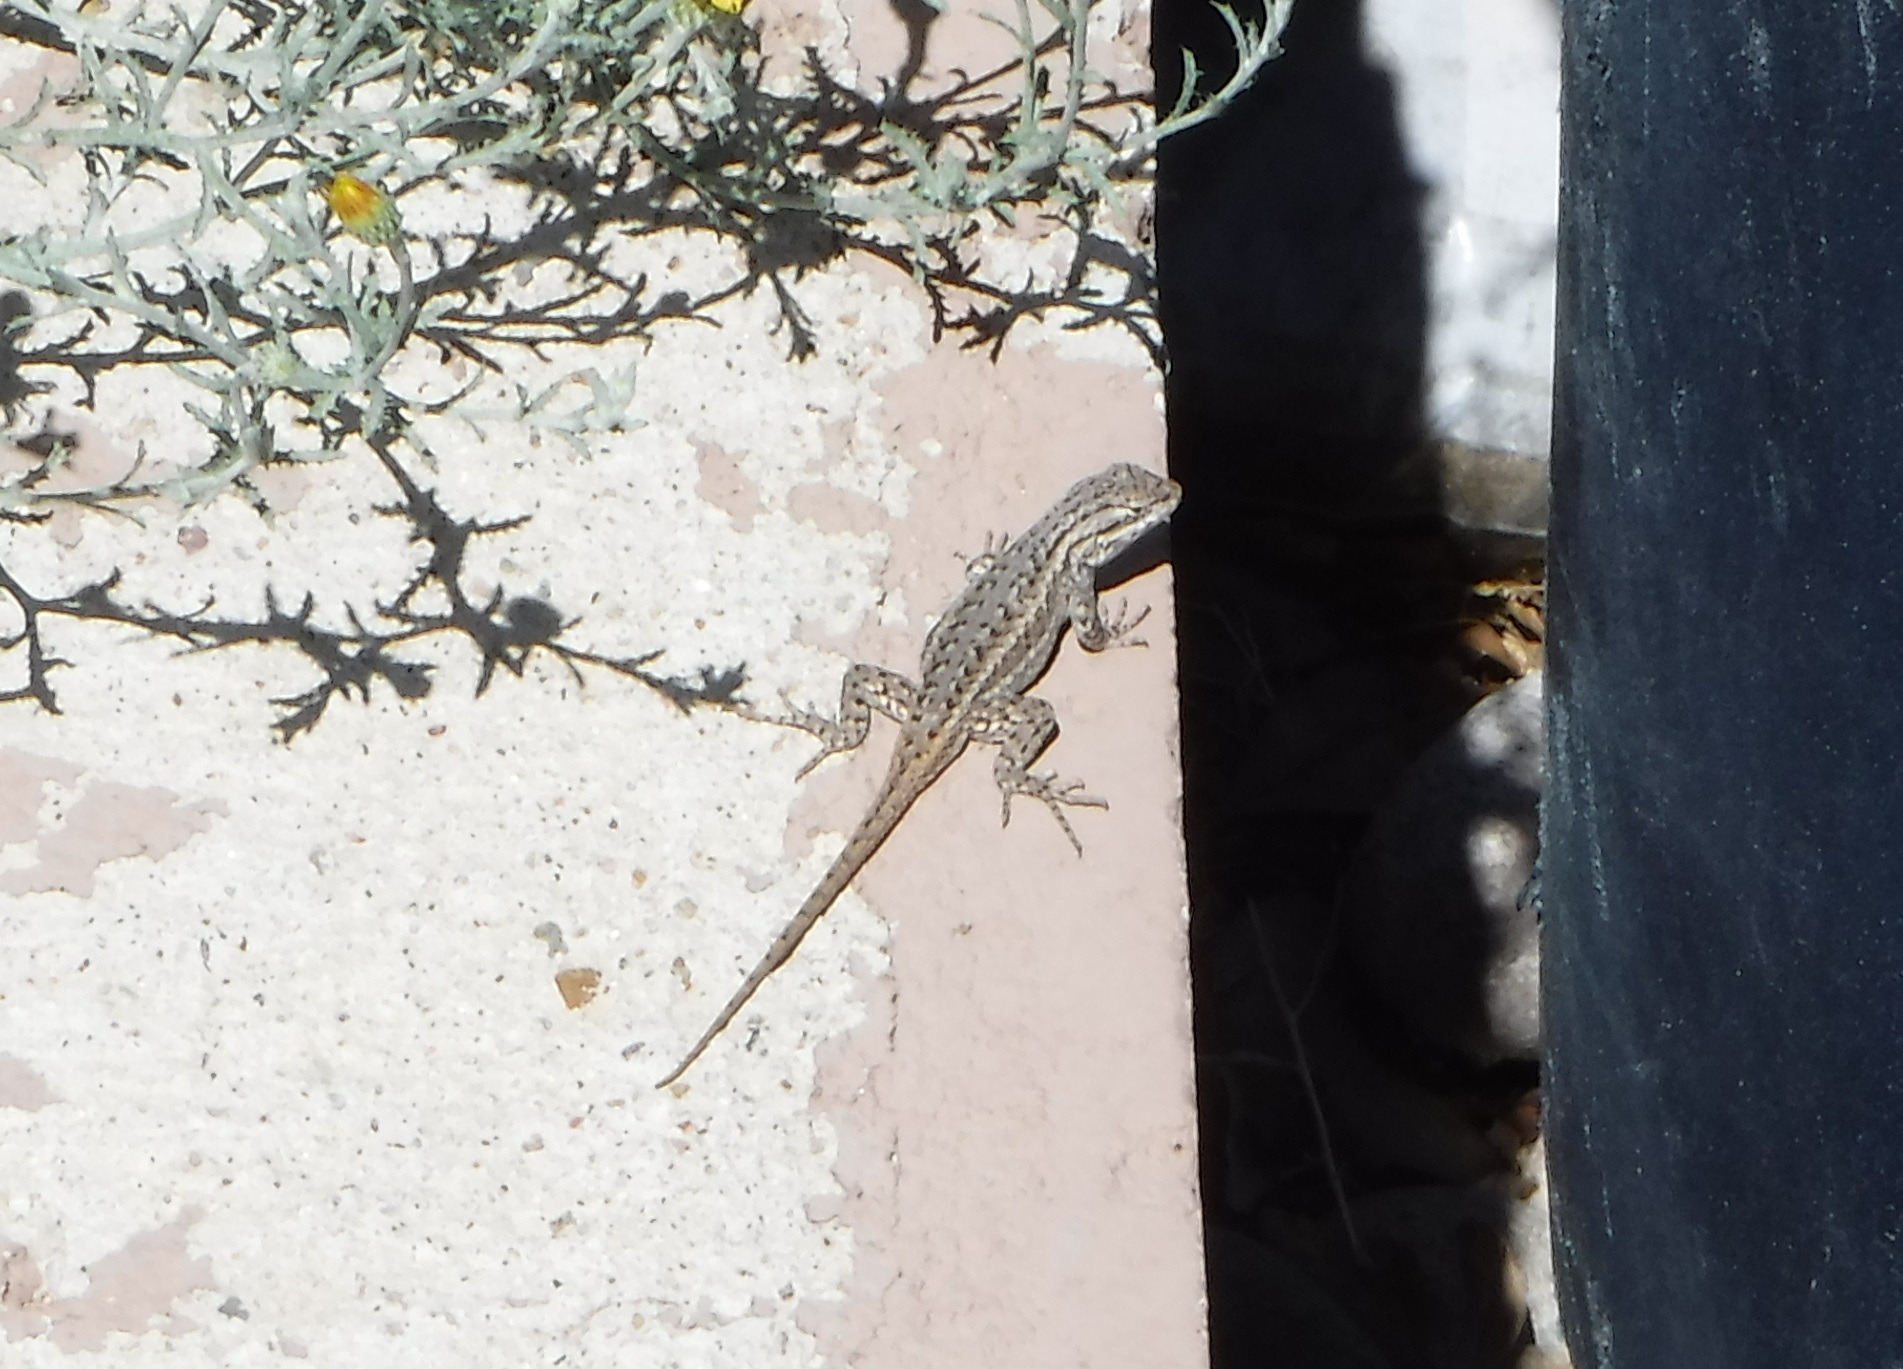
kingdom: Animalia
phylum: Chordata
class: Squamata
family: Phrynosomatidae
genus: Sceloporus
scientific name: Sceloporus cowlesi
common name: White sands prairie lizard
